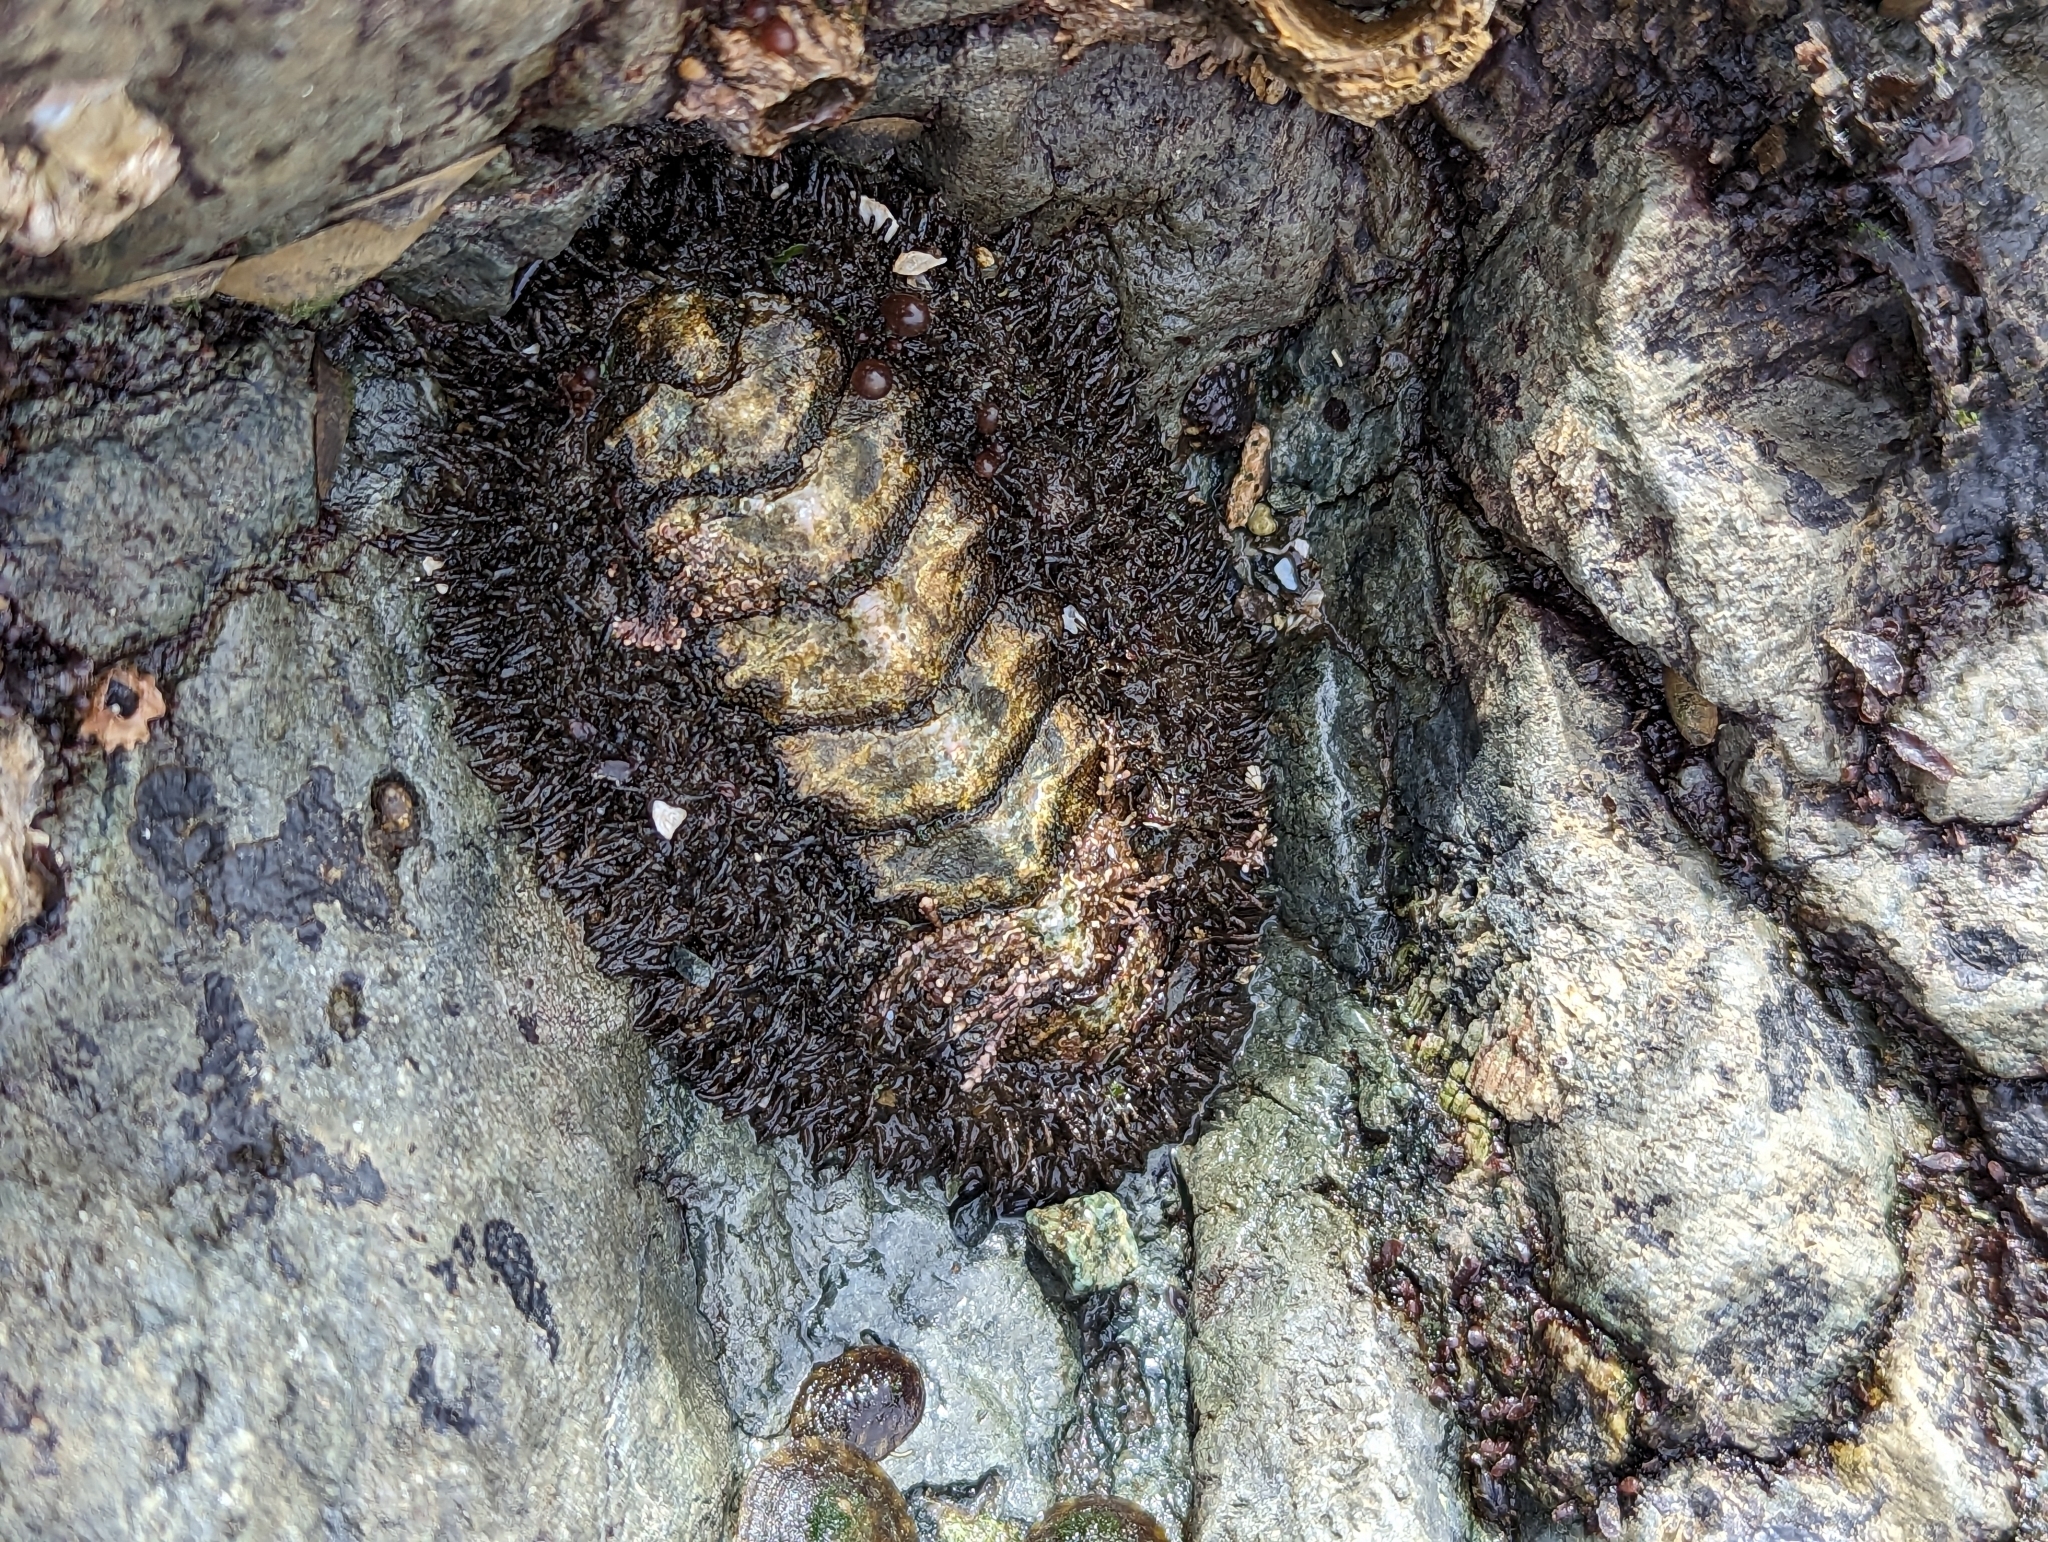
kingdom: Animalia
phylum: Mollusca
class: Polyplacophora
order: Chitonida
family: Mopaliidae
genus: Mopalia
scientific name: Mopalia muscosa
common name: Mossy chiton
